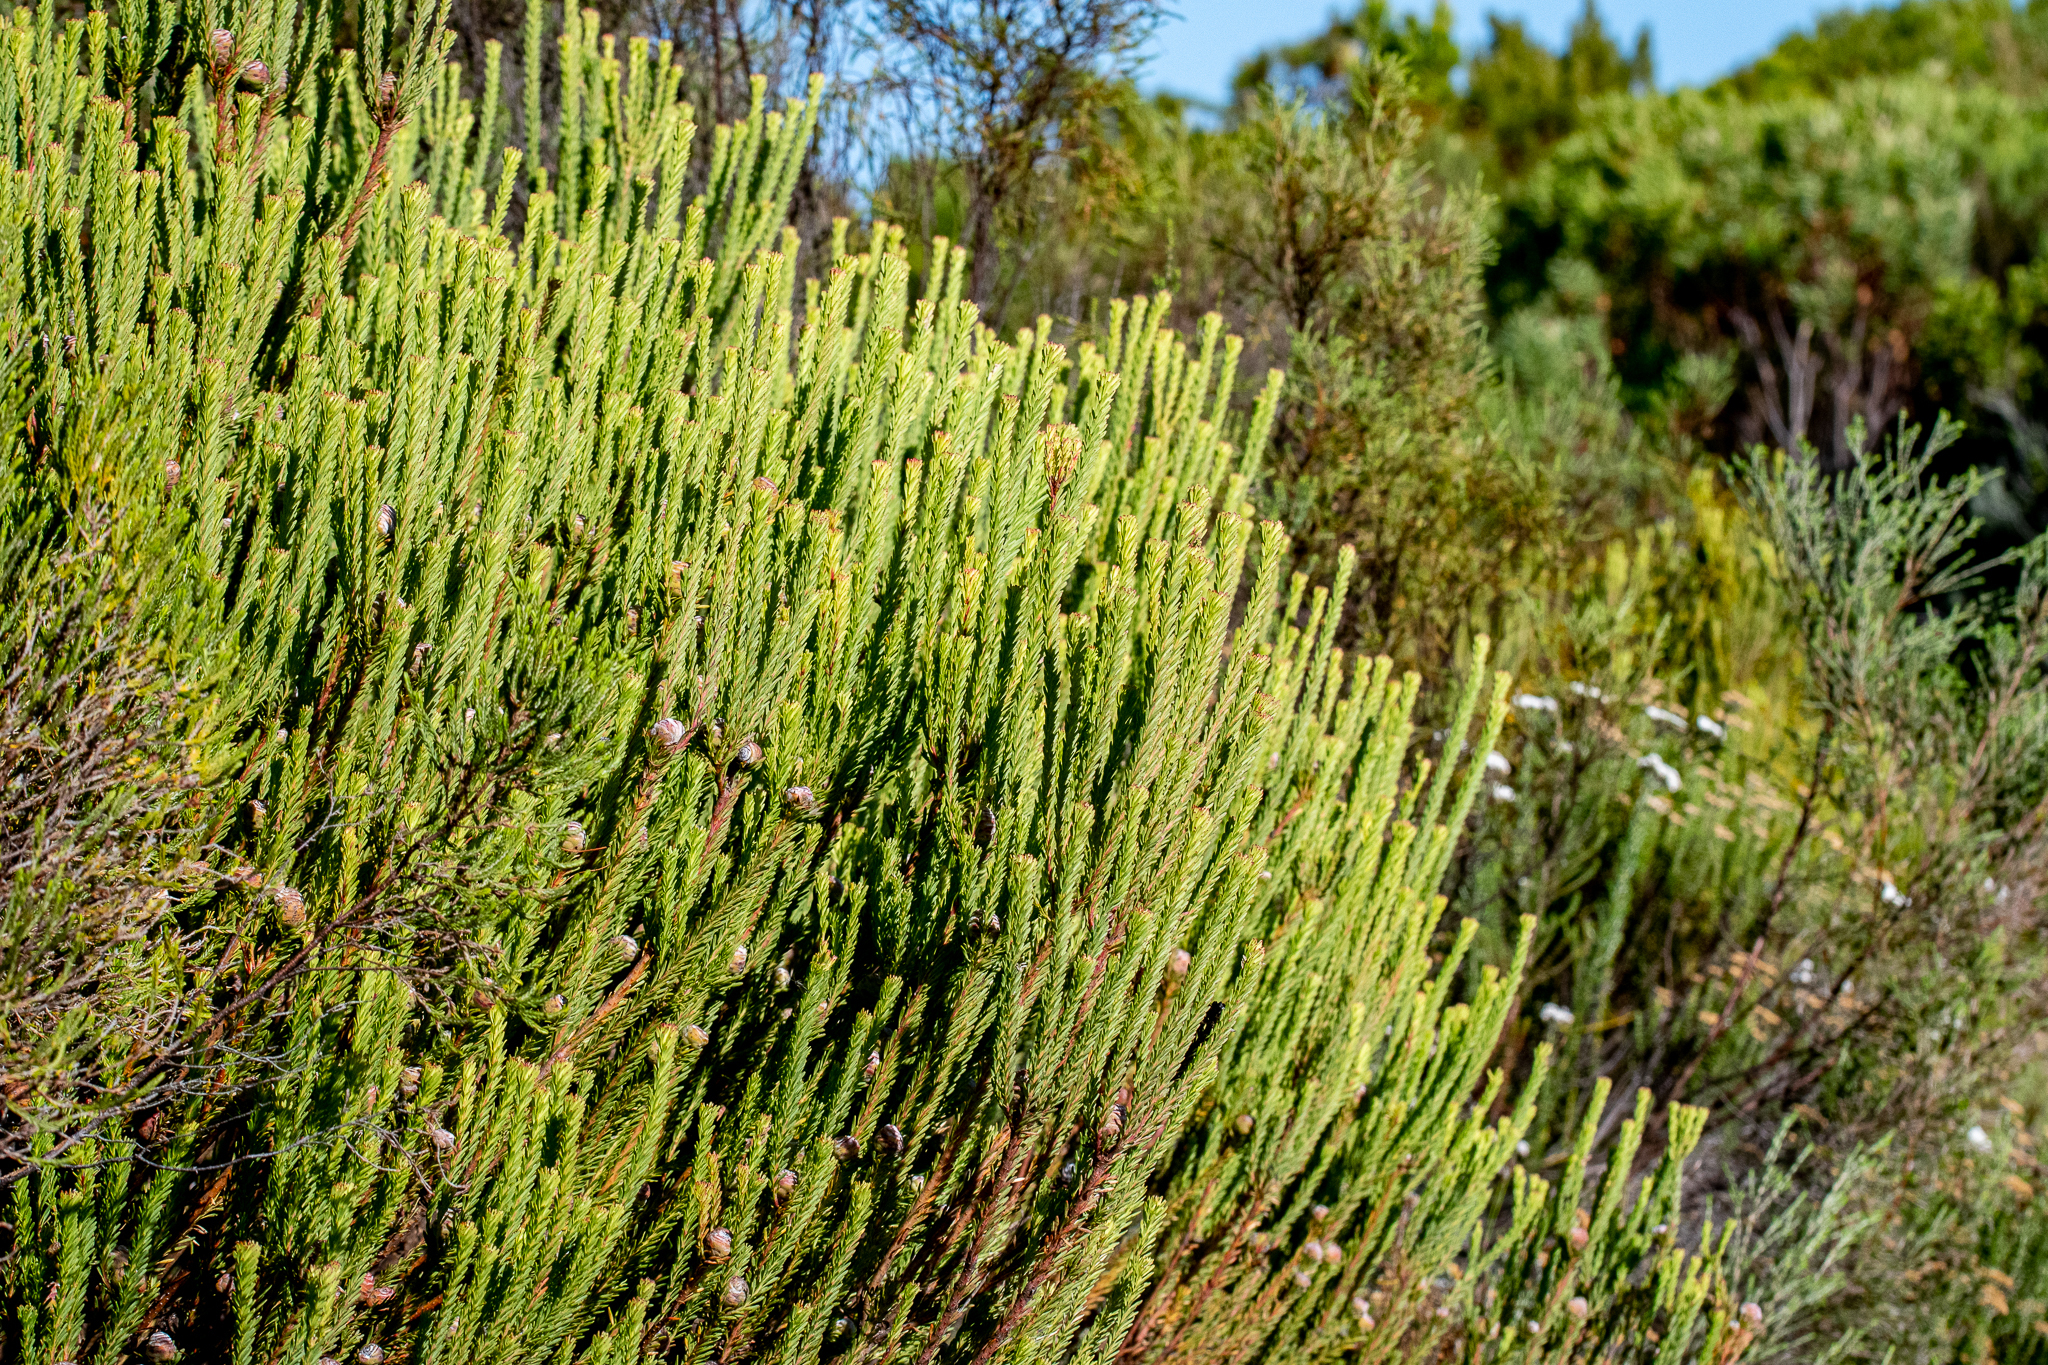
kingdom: Plantae
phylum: Tracheophyta
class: Magnoliopsida
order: Proteales
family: Proteaceae
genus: Leucadendron
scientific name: Leucadendron linifolium
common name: Line-leaf conebush
